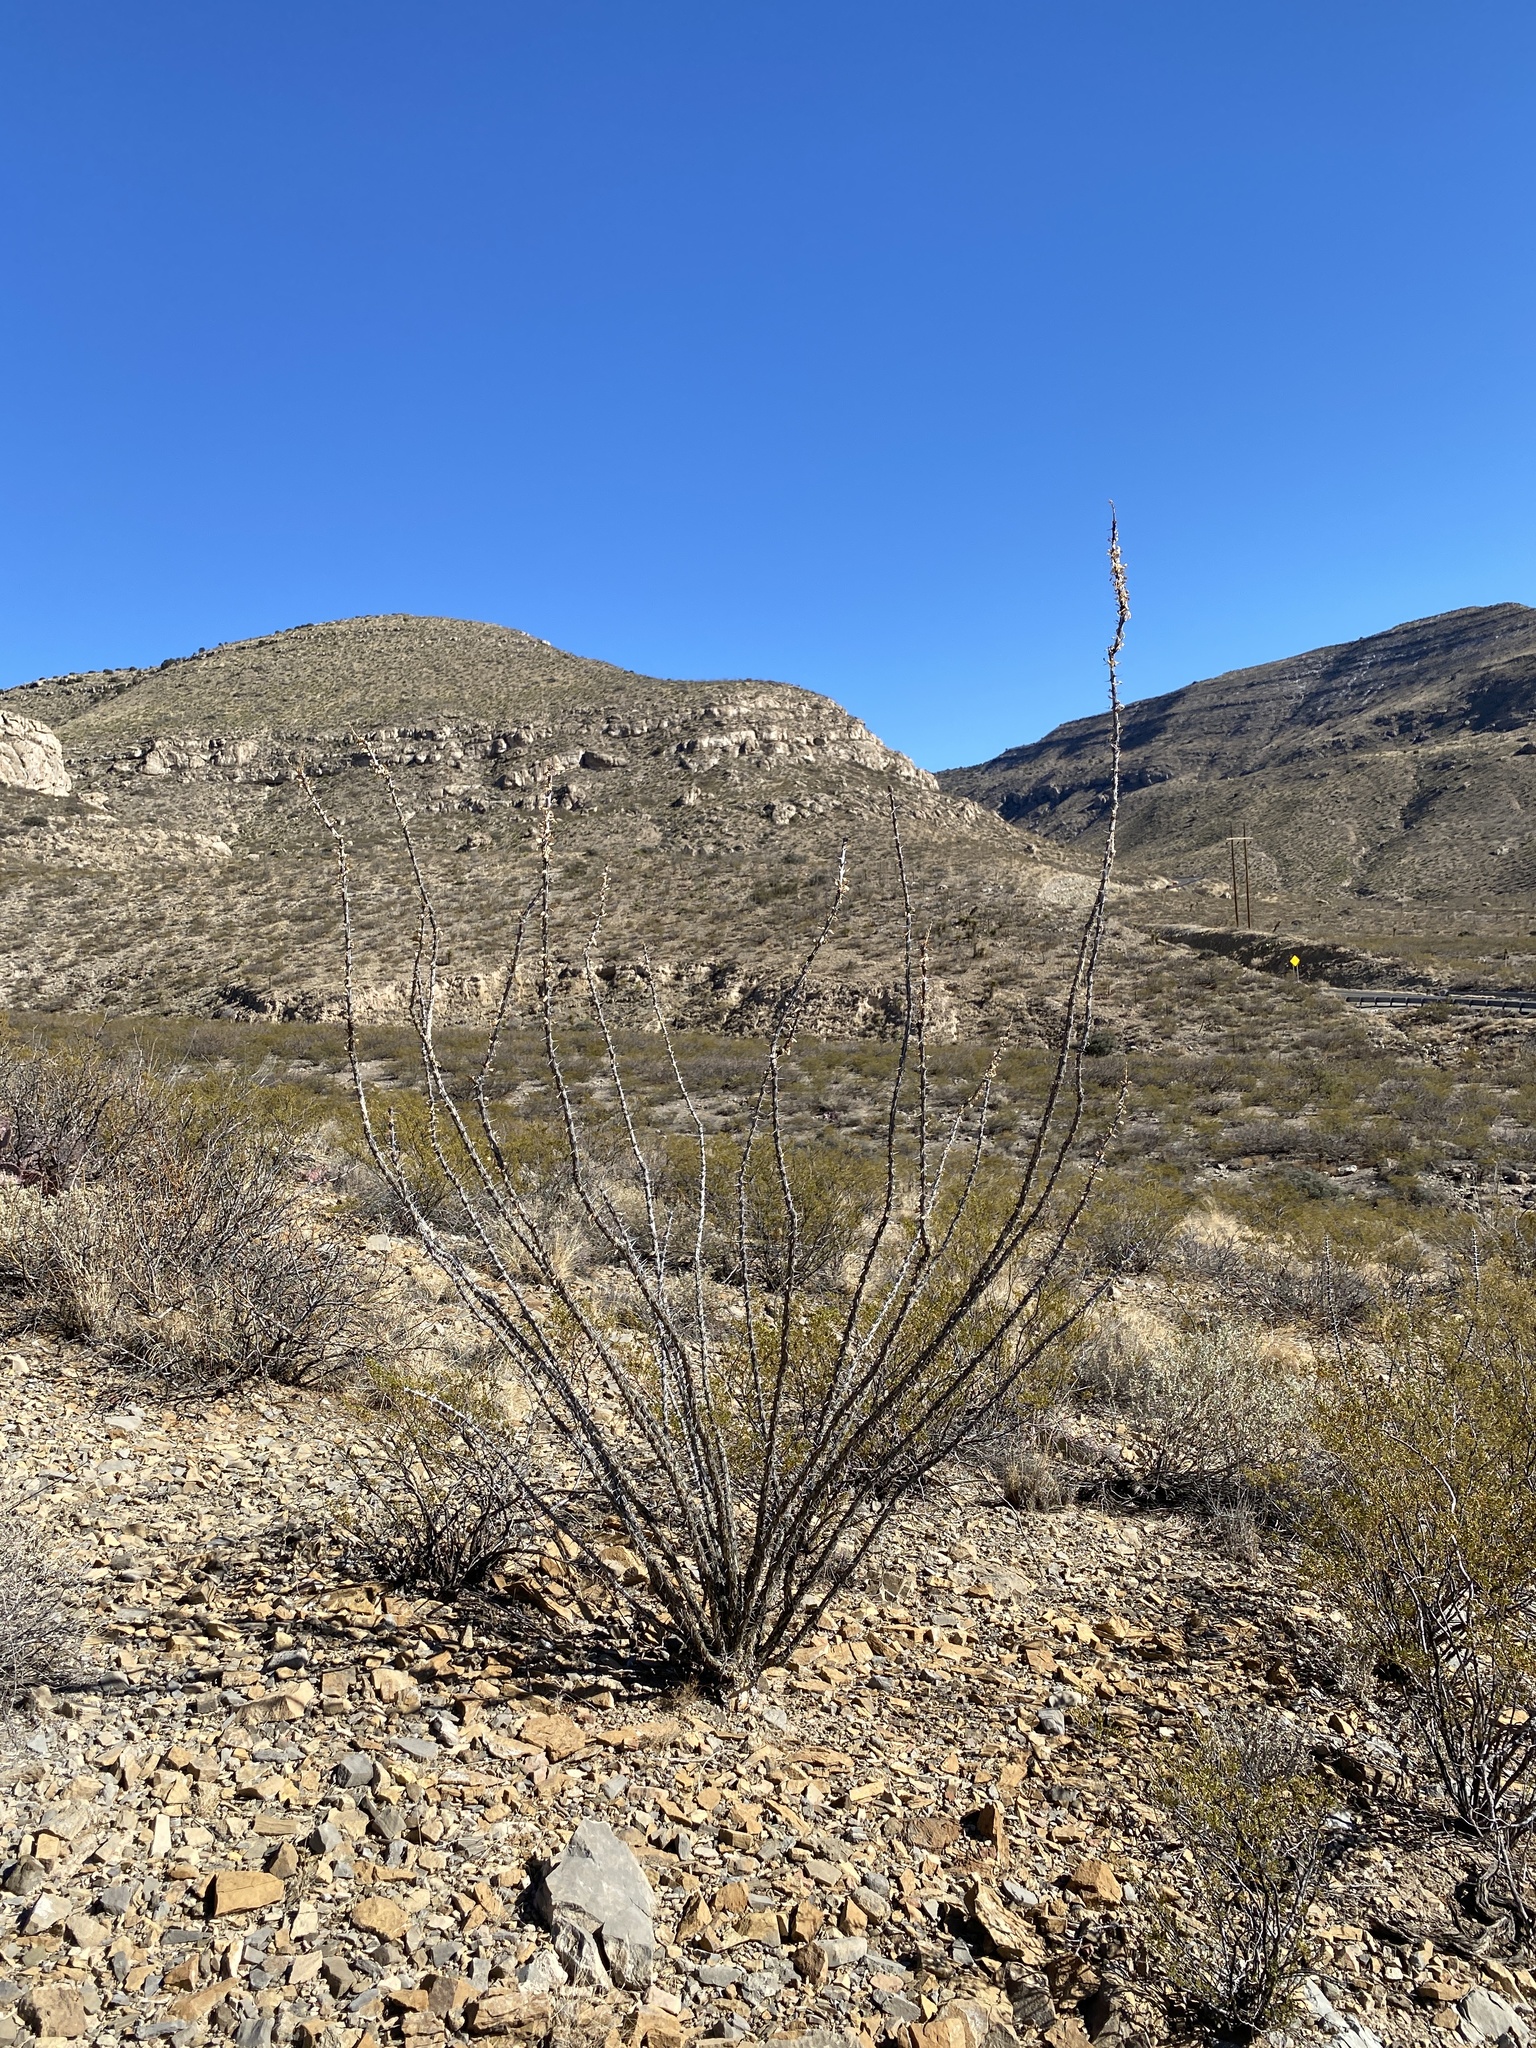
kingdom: Plantae
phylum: Tracheophyta
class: Magnoliopsida
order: Ericales
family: Fouquieriaceae
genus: Fouquieria
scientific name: Fouquieria splendens
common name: Vine-cactus
